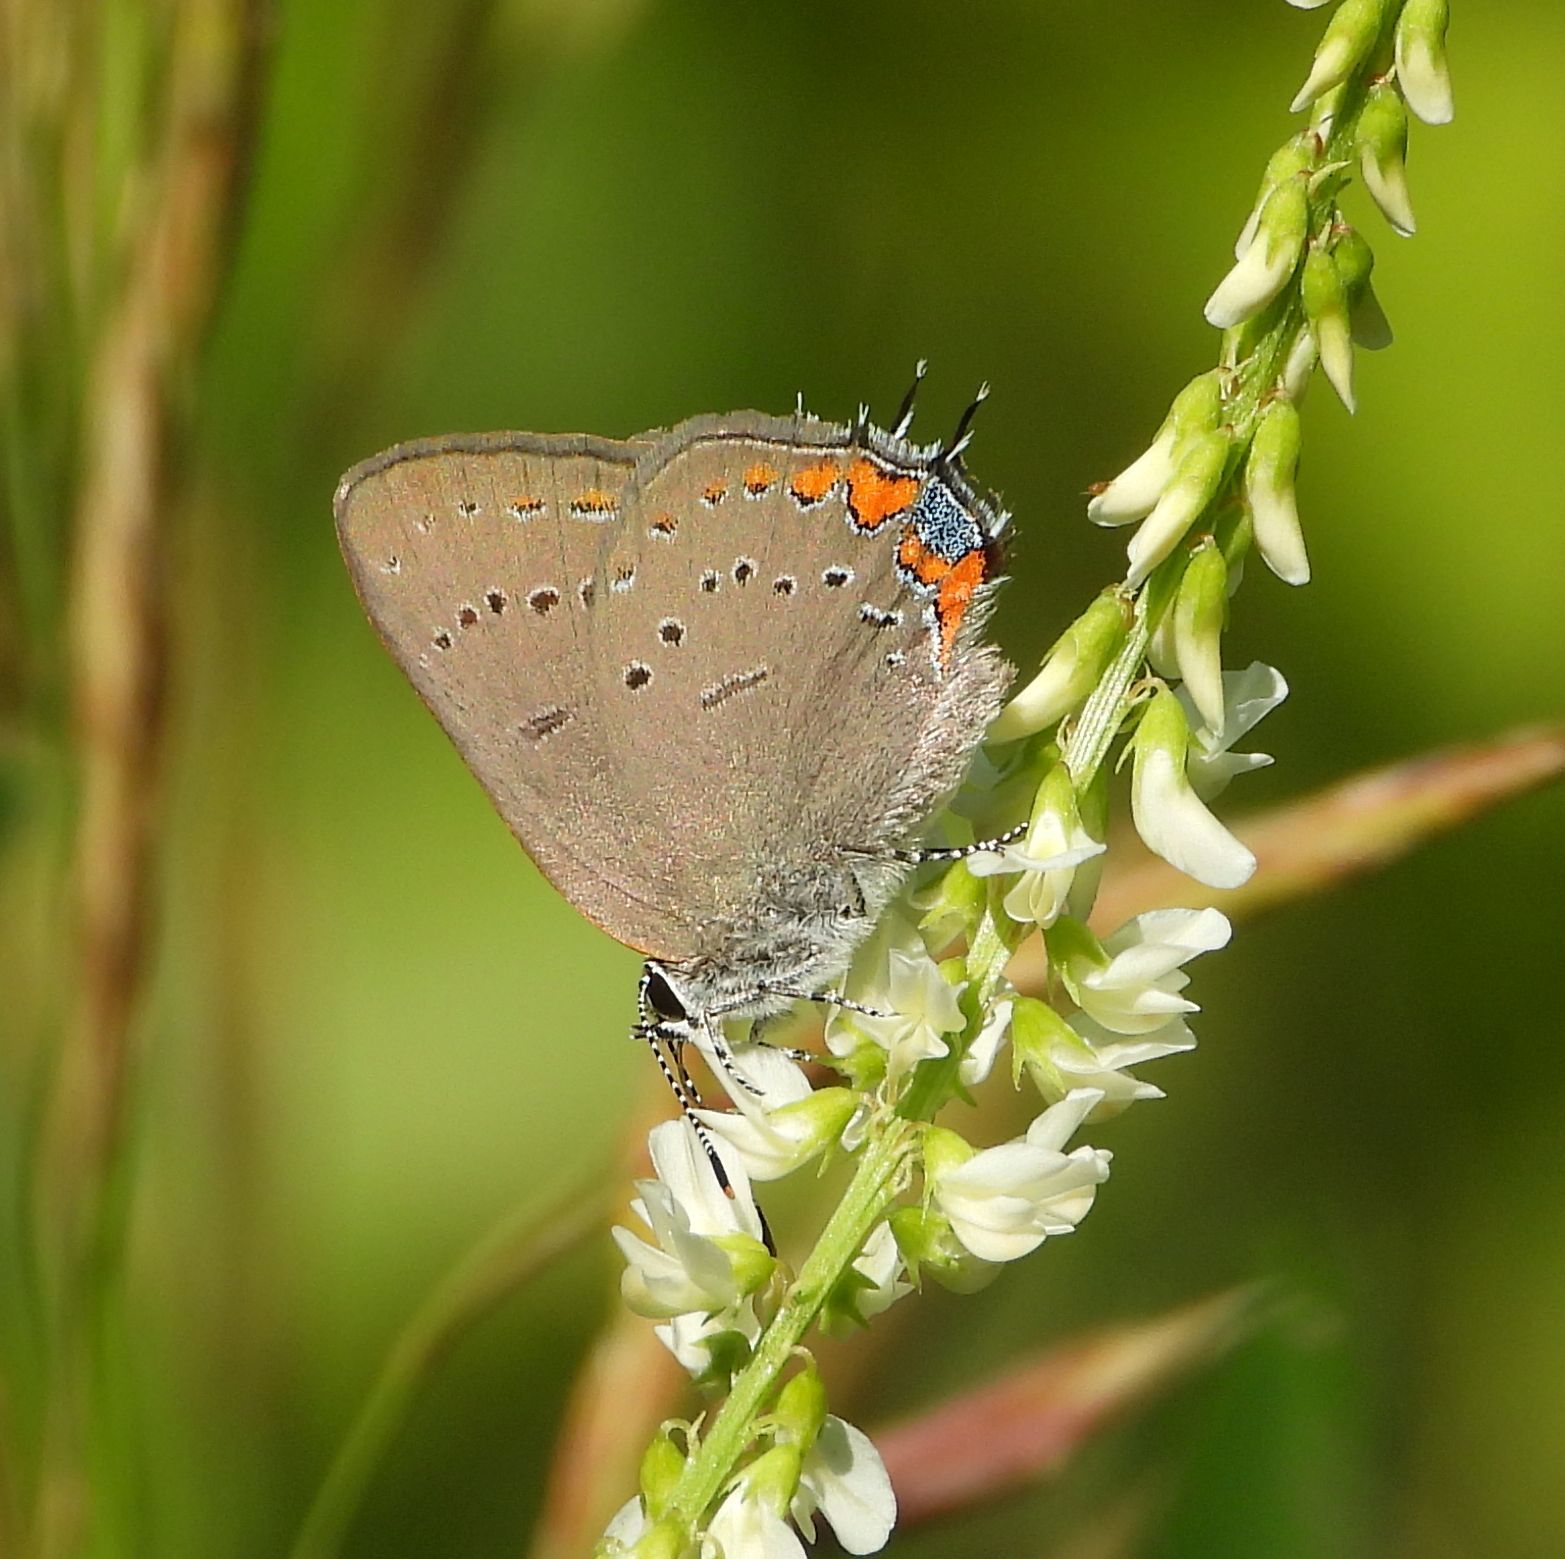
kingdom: Animalia
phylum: Arthropoda
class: Insecta
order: Lepidoptera
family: Lycaenidae
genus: Strymon
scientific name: Strymon acadica
